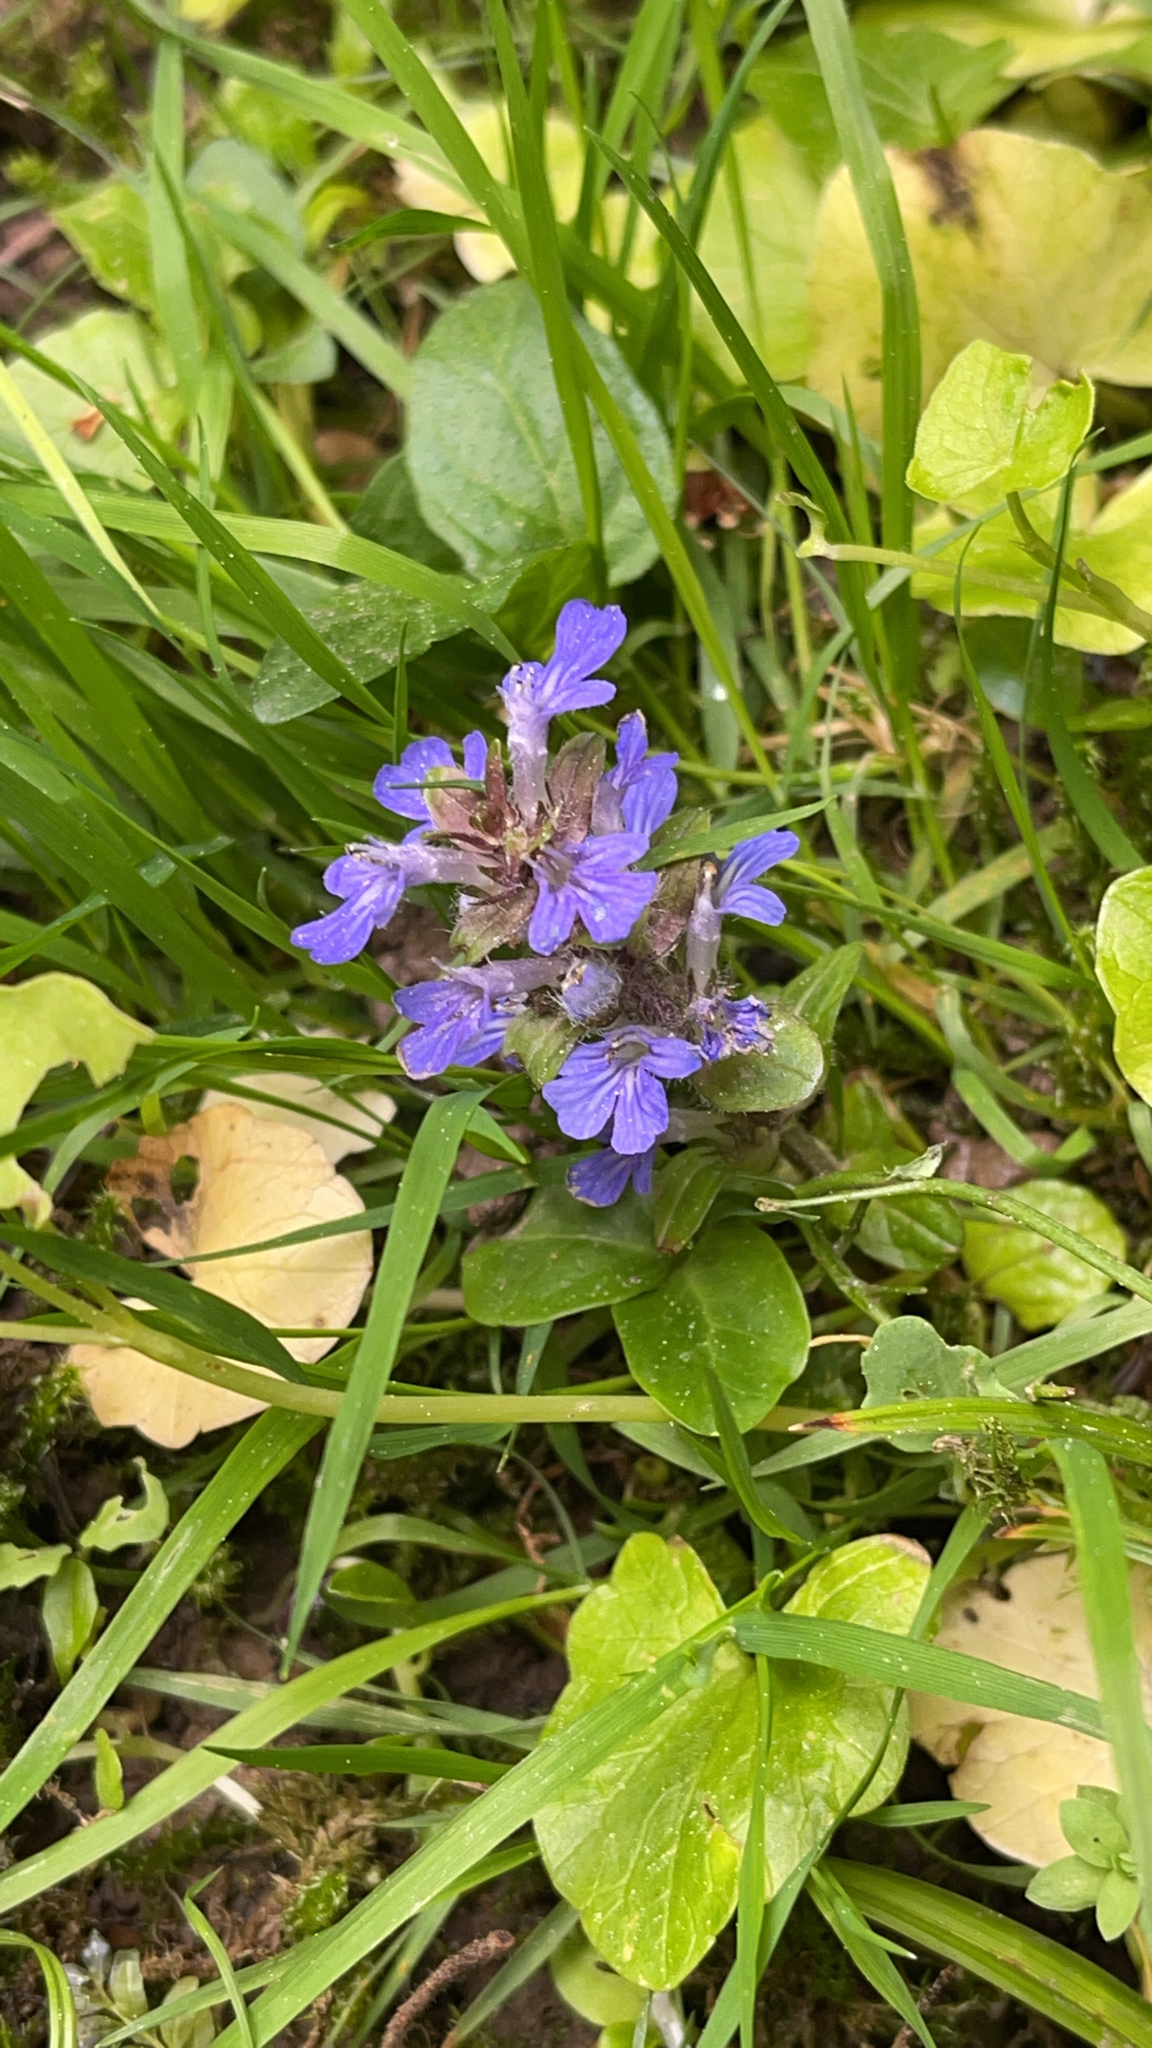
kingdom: Plantae
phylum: Tracheophyta
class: Magnoliopsida
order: Lamiales
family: Lamiaceae
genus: Ajuga
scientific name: Ajuga reptans
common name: Bugle
